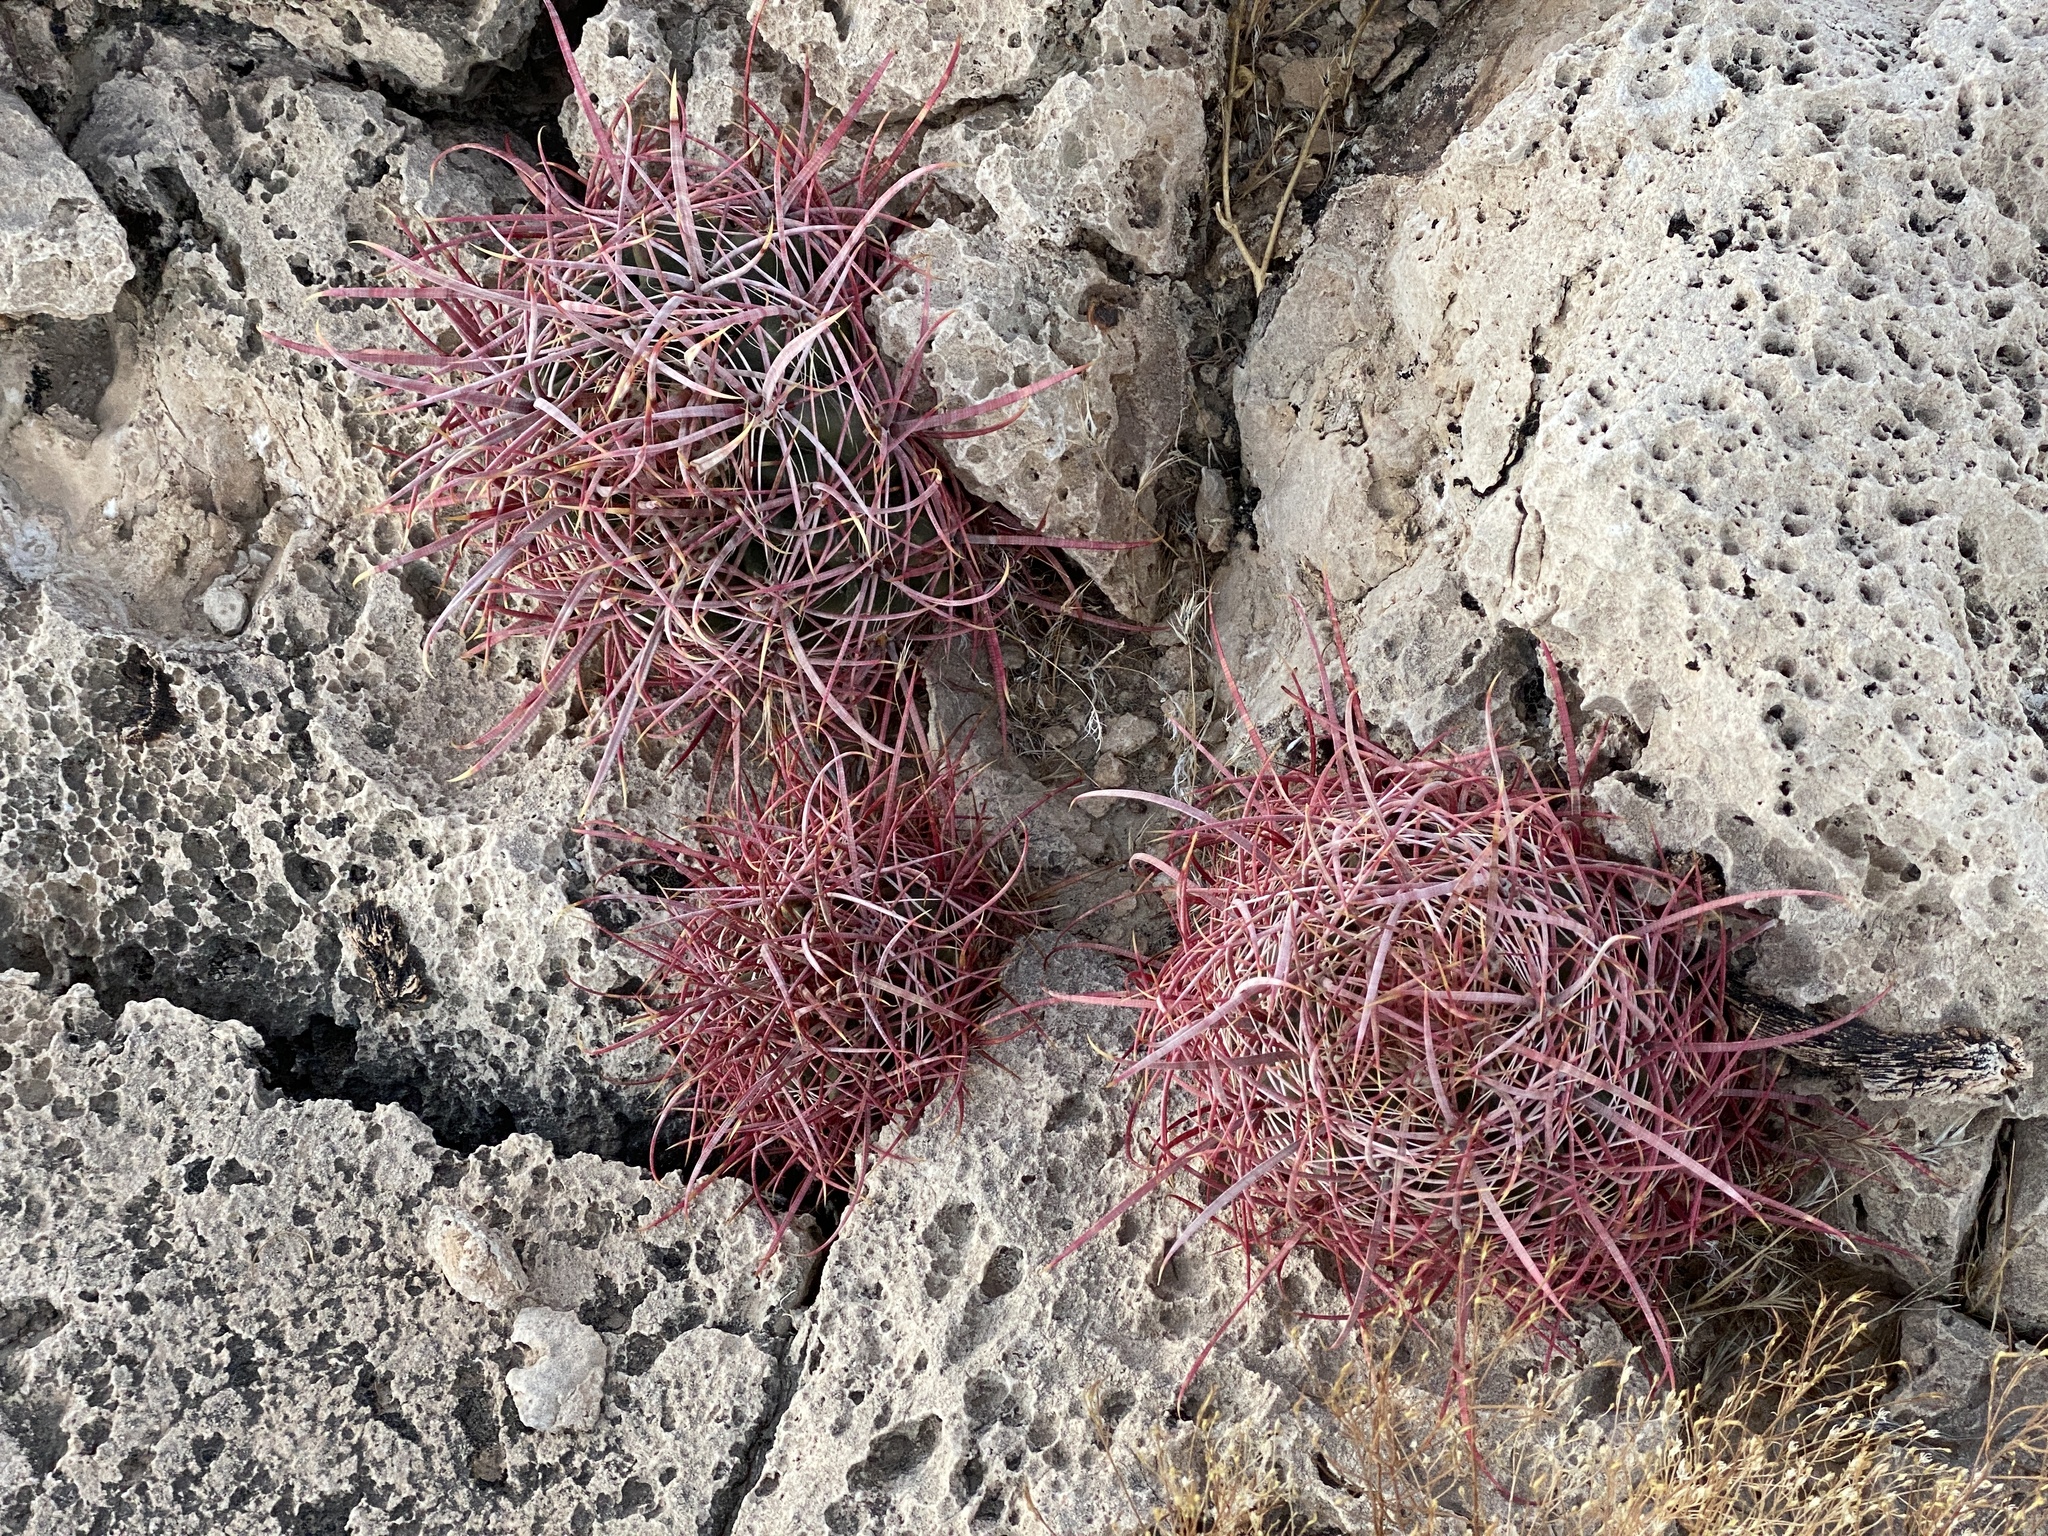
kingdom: Plantae
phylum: Tracheophyta
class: Magnoliopsida
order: Caryophyllales
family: Cactaceae
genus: Ferocactus
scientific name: Ferocactus cylindraceus
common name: California barrel cactus
